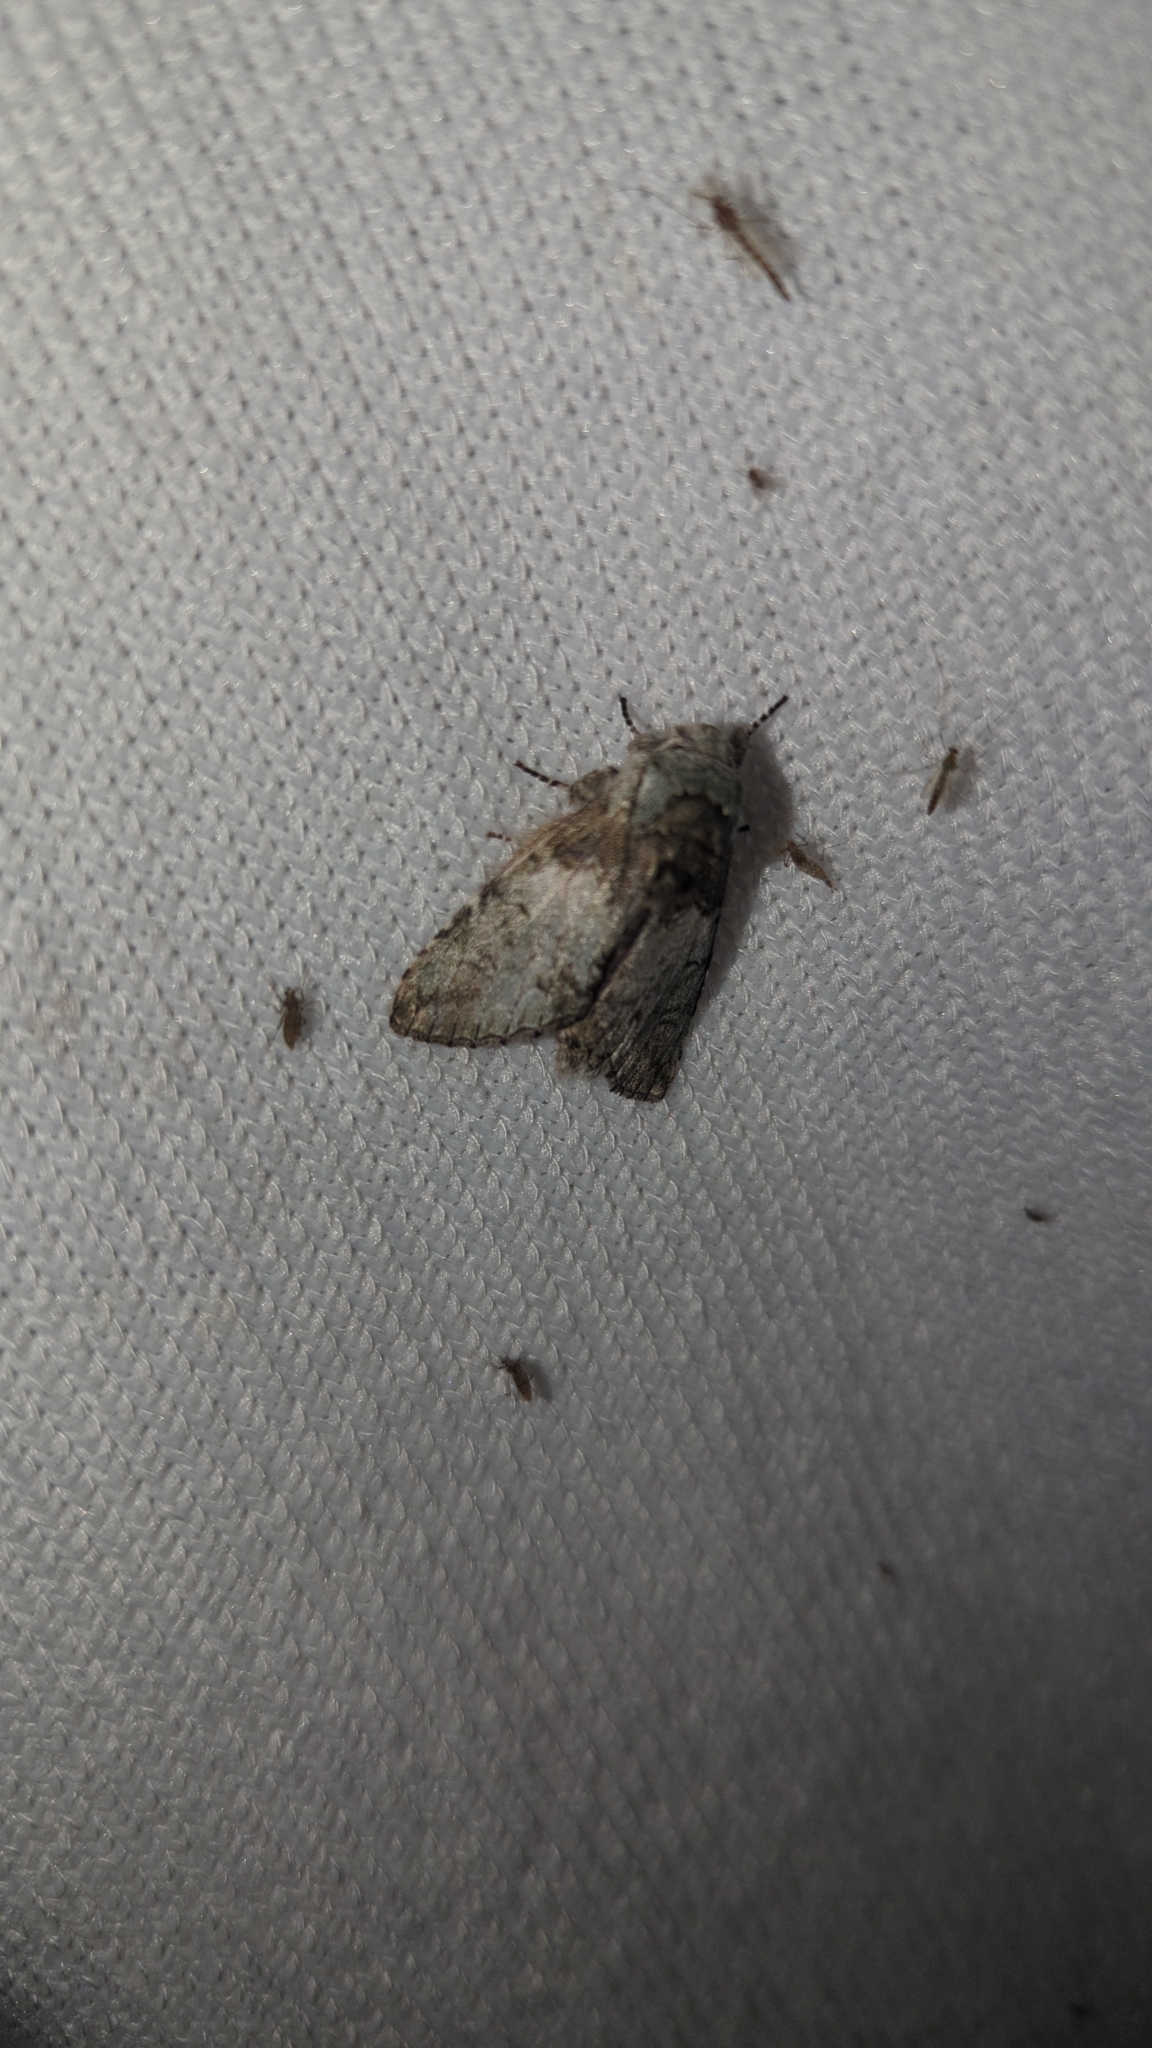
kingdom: Animalia
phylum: Arthropoda
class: Insecta
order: Lepidoptera
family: Notodontidae
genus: Macrurocampa
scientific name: Macrurocampa marthesia
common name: Mottled prominent
